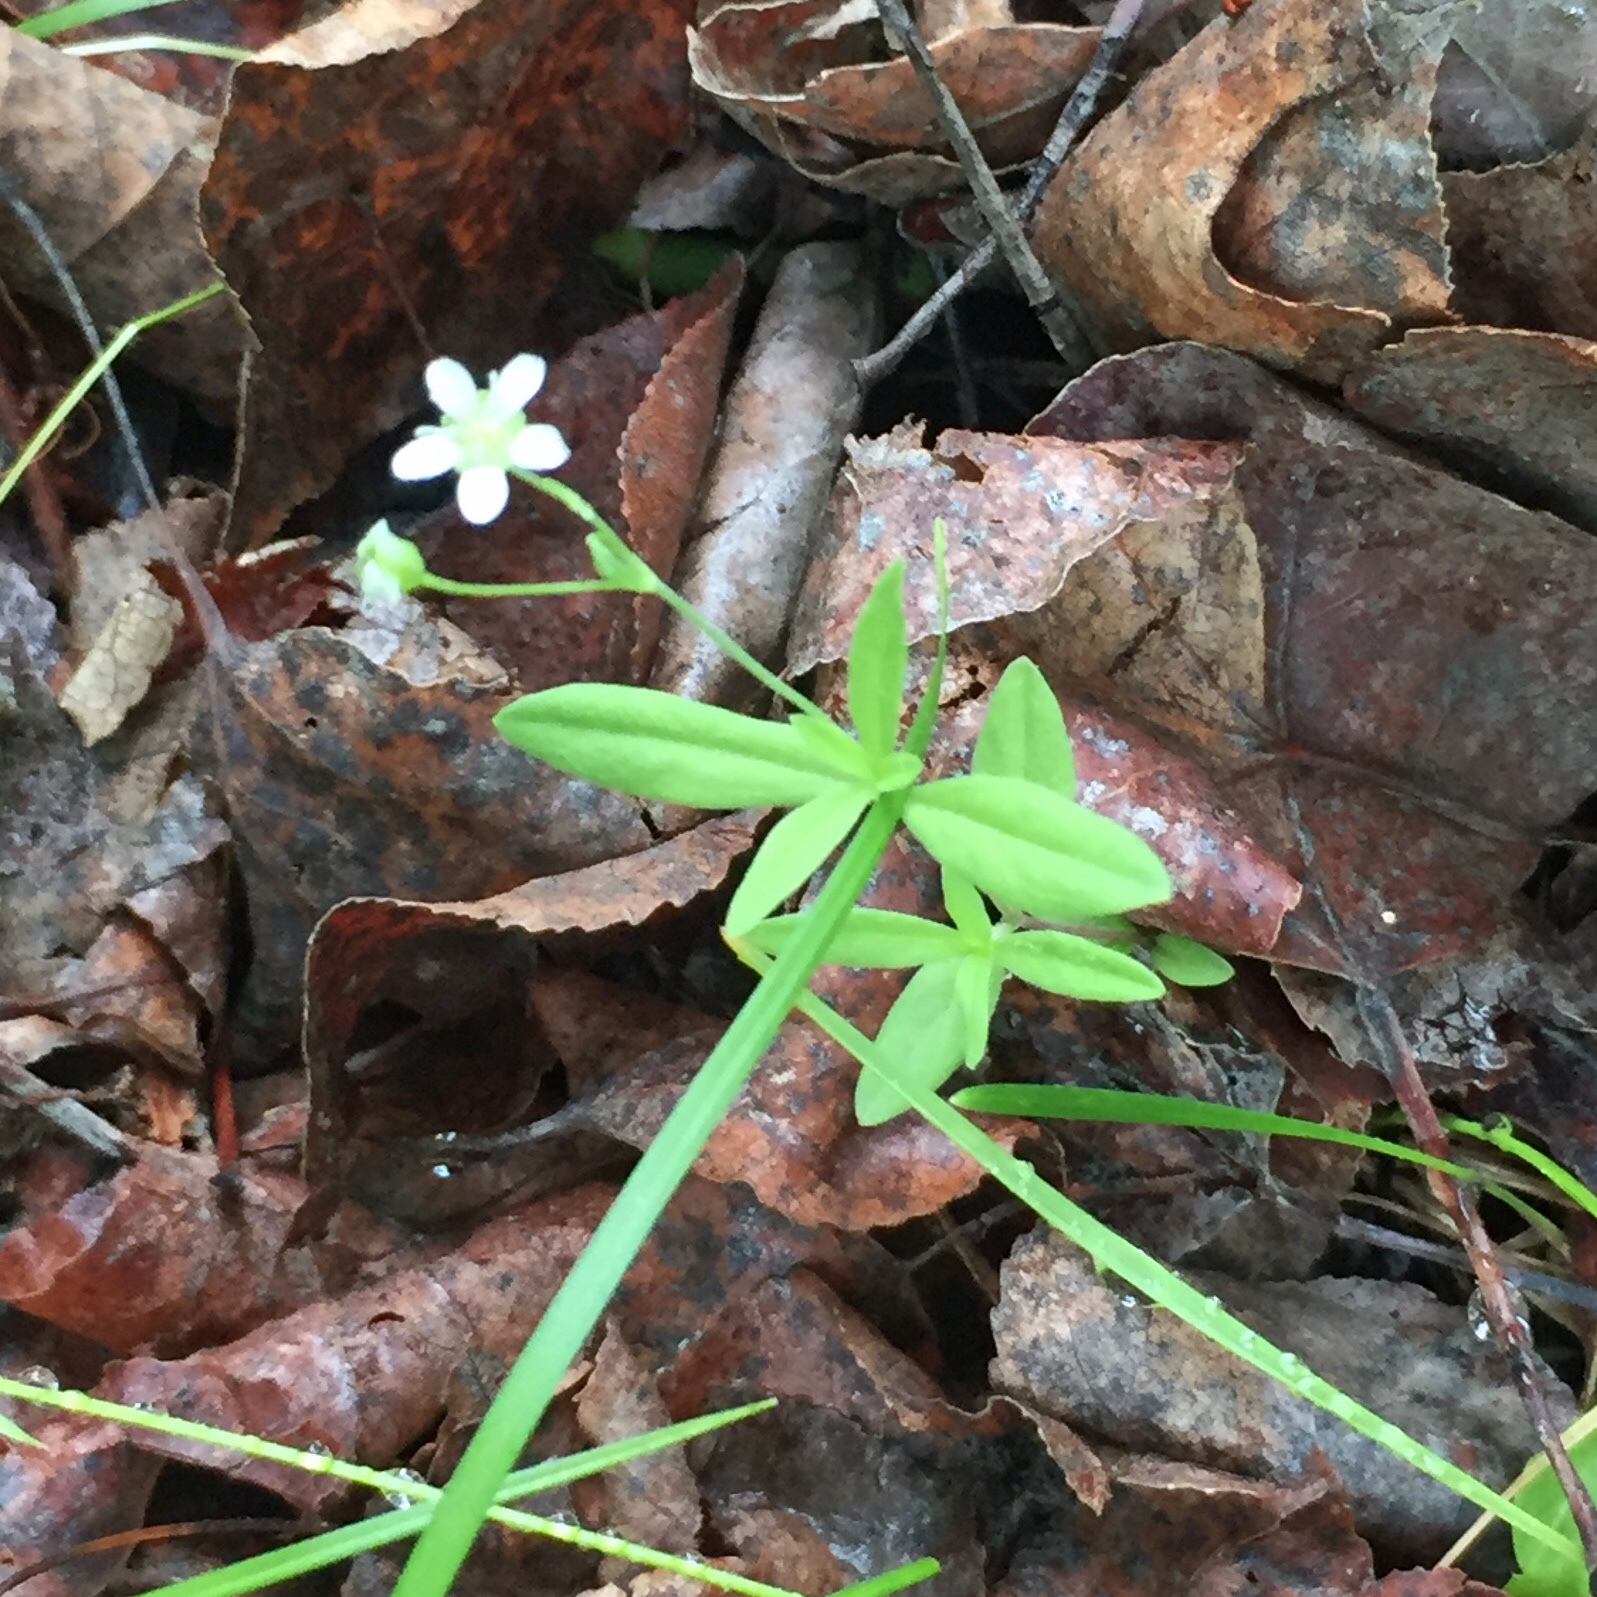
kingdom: Plantae
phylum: Tracheophyta
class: Magnoliopsida
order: Caryophyllales
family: Caryophyllaceae
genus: Moehringia
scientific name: Moehringia lateriflora
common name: Blunt-leaved sandwort
